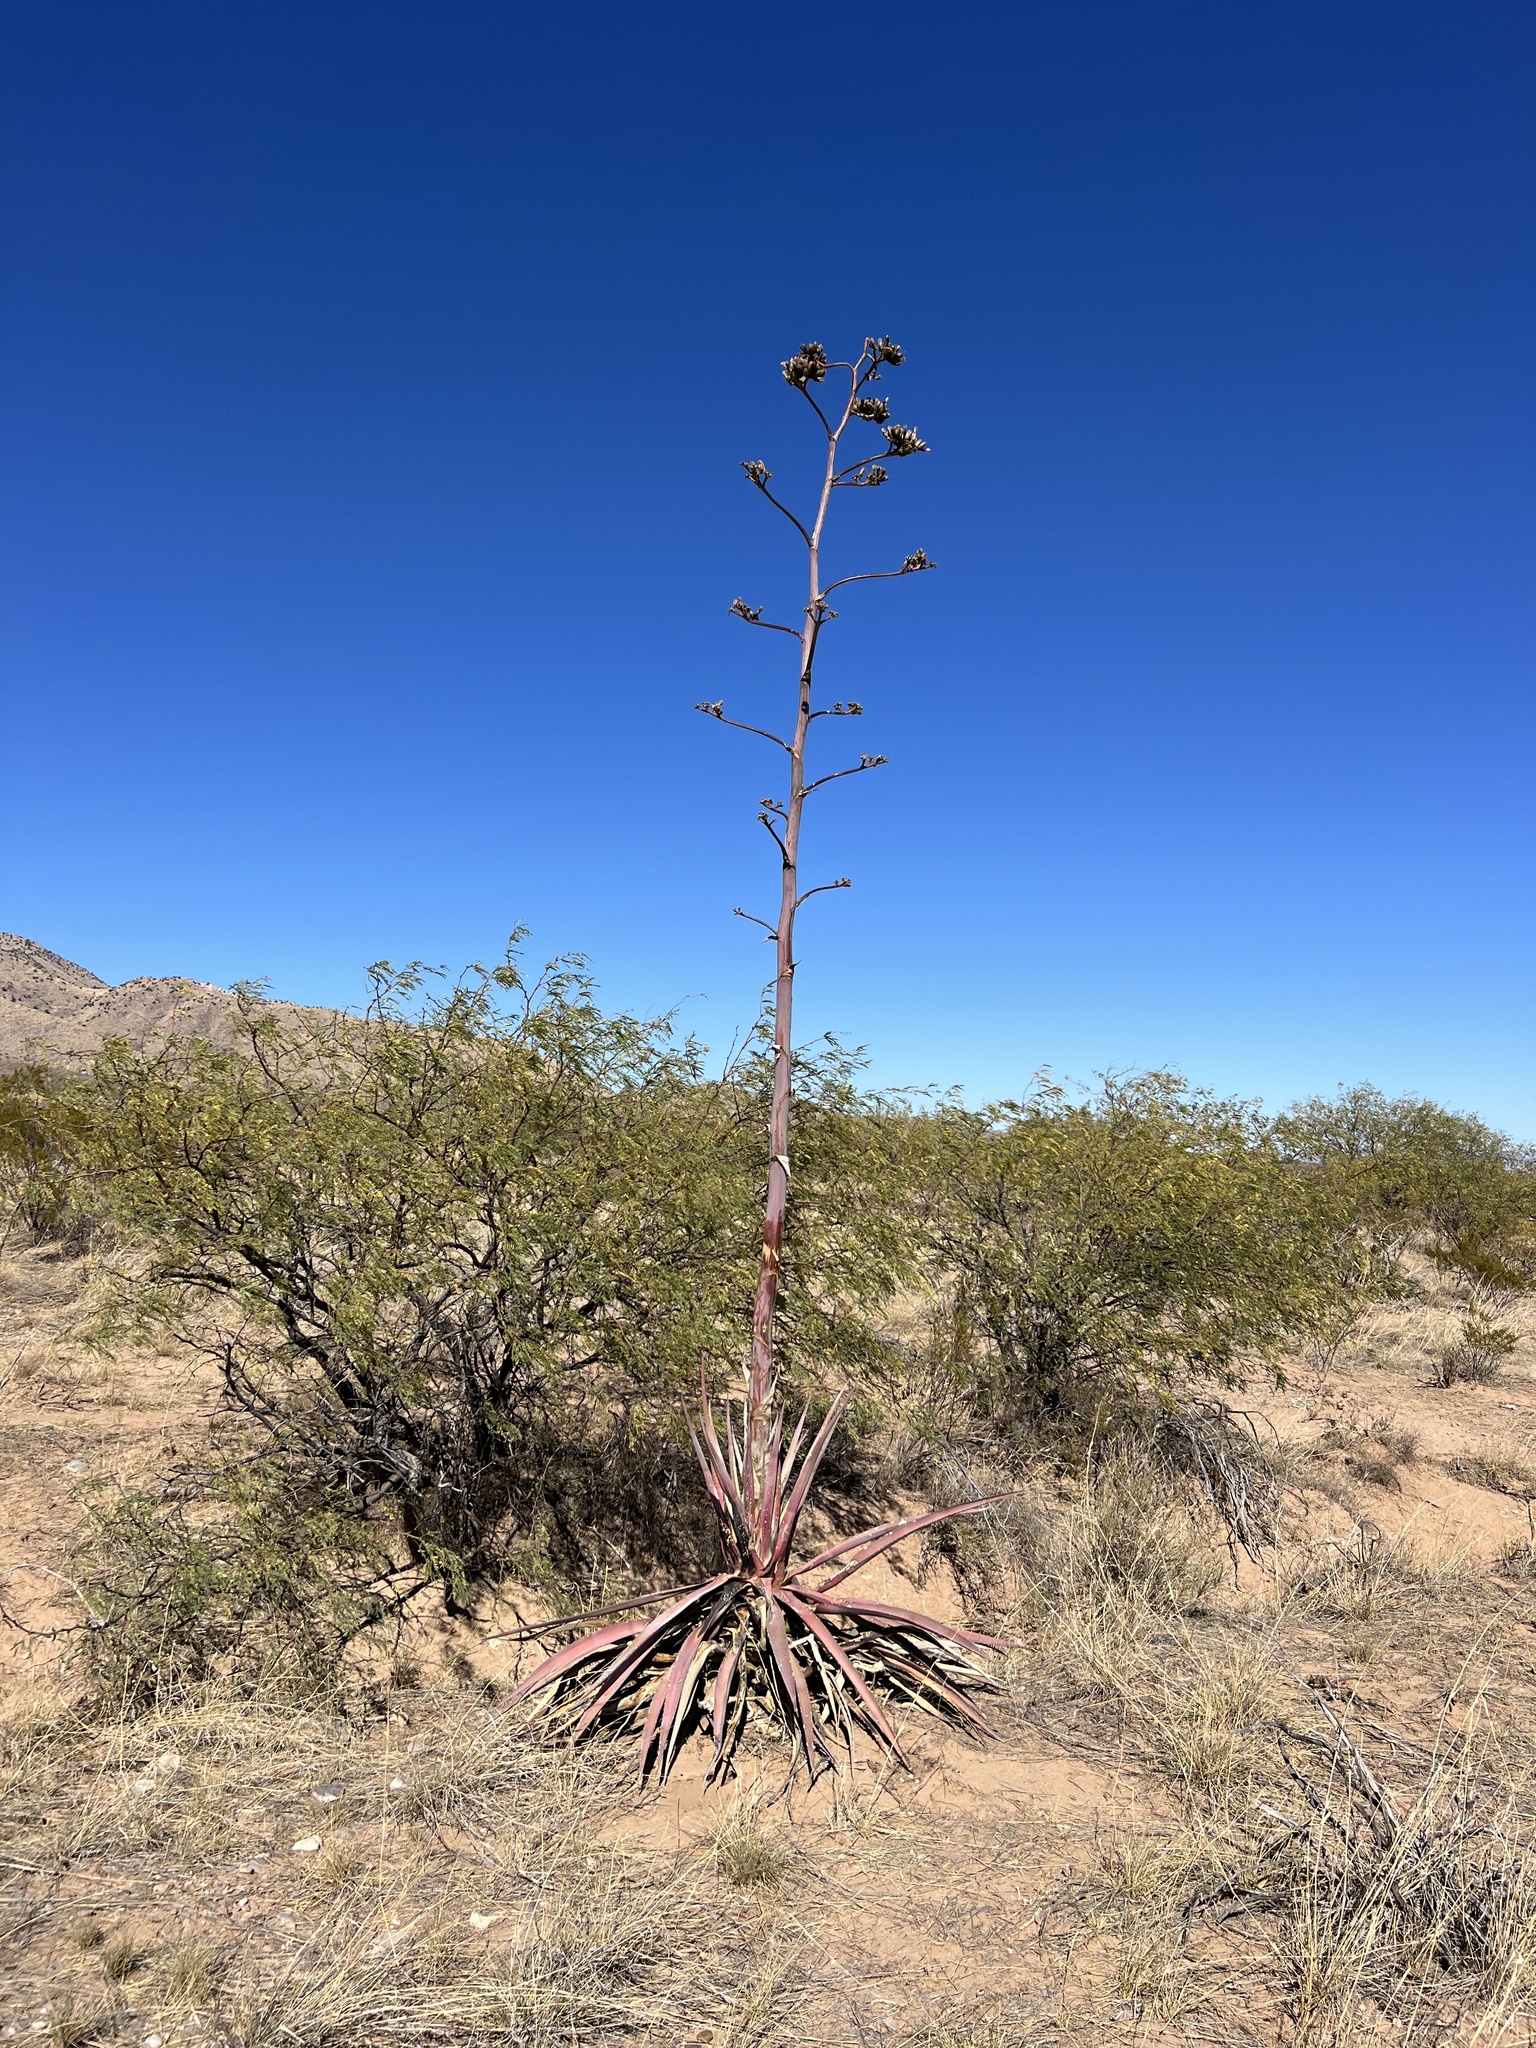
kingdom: Plantae
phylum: Tracheophyta
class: Liliopsida
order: Asparagales
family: Asparagaceae
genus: Agave
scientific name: Agave palmeri
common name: Palmer agave
